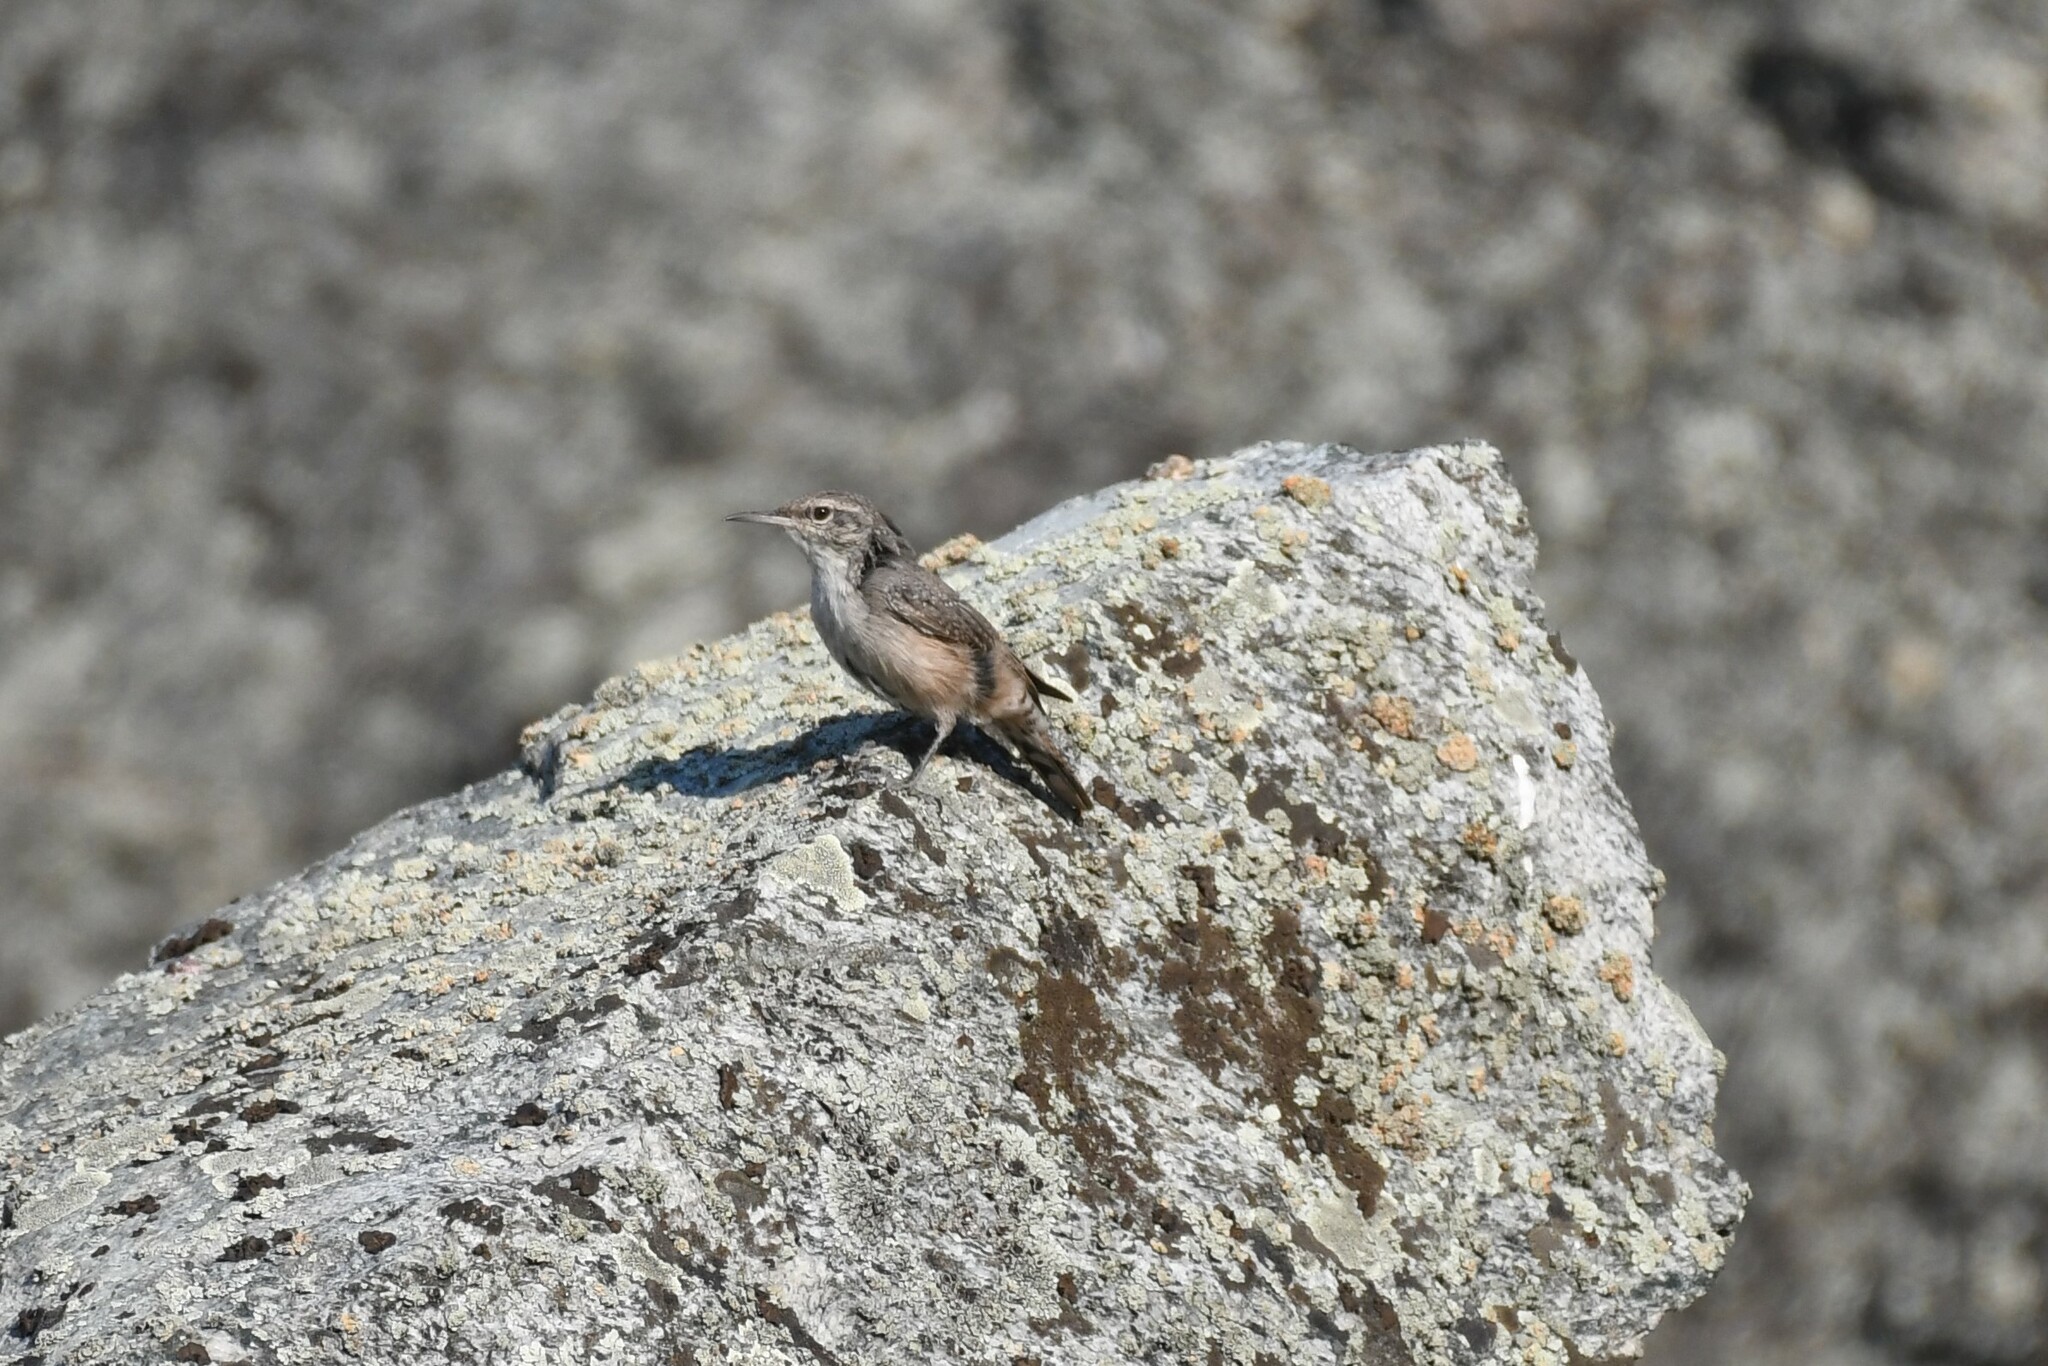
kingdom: Animalia
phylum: Chordata
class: Aves
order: Passeriformes
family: Troglodytidae
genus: Salpinctes
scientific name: Salpinctes obsoletus
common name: Rock wren
